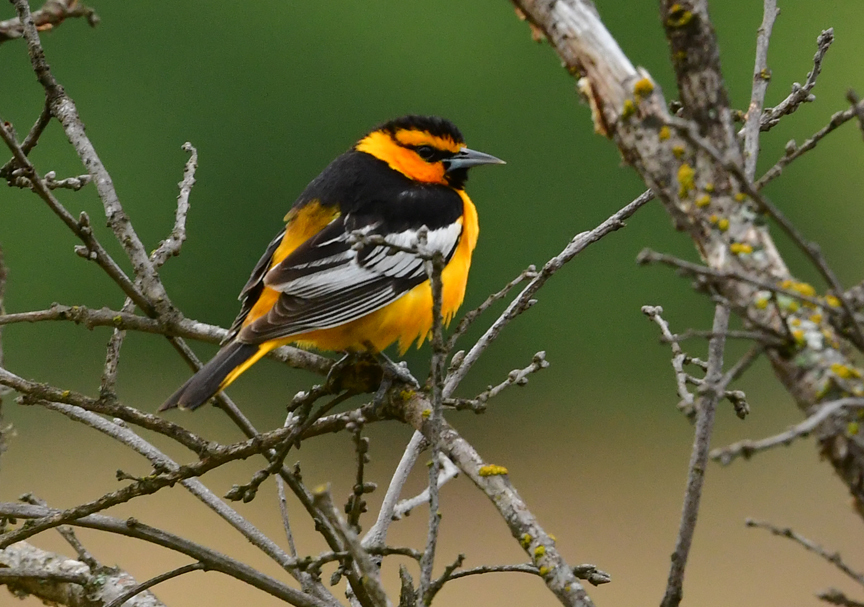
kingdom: Animalia
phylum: Chordata
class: Aves
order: Passeriformes
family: Icteridae
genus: Icterus
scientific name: Icterus bullockii
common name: Bullock's oriole
